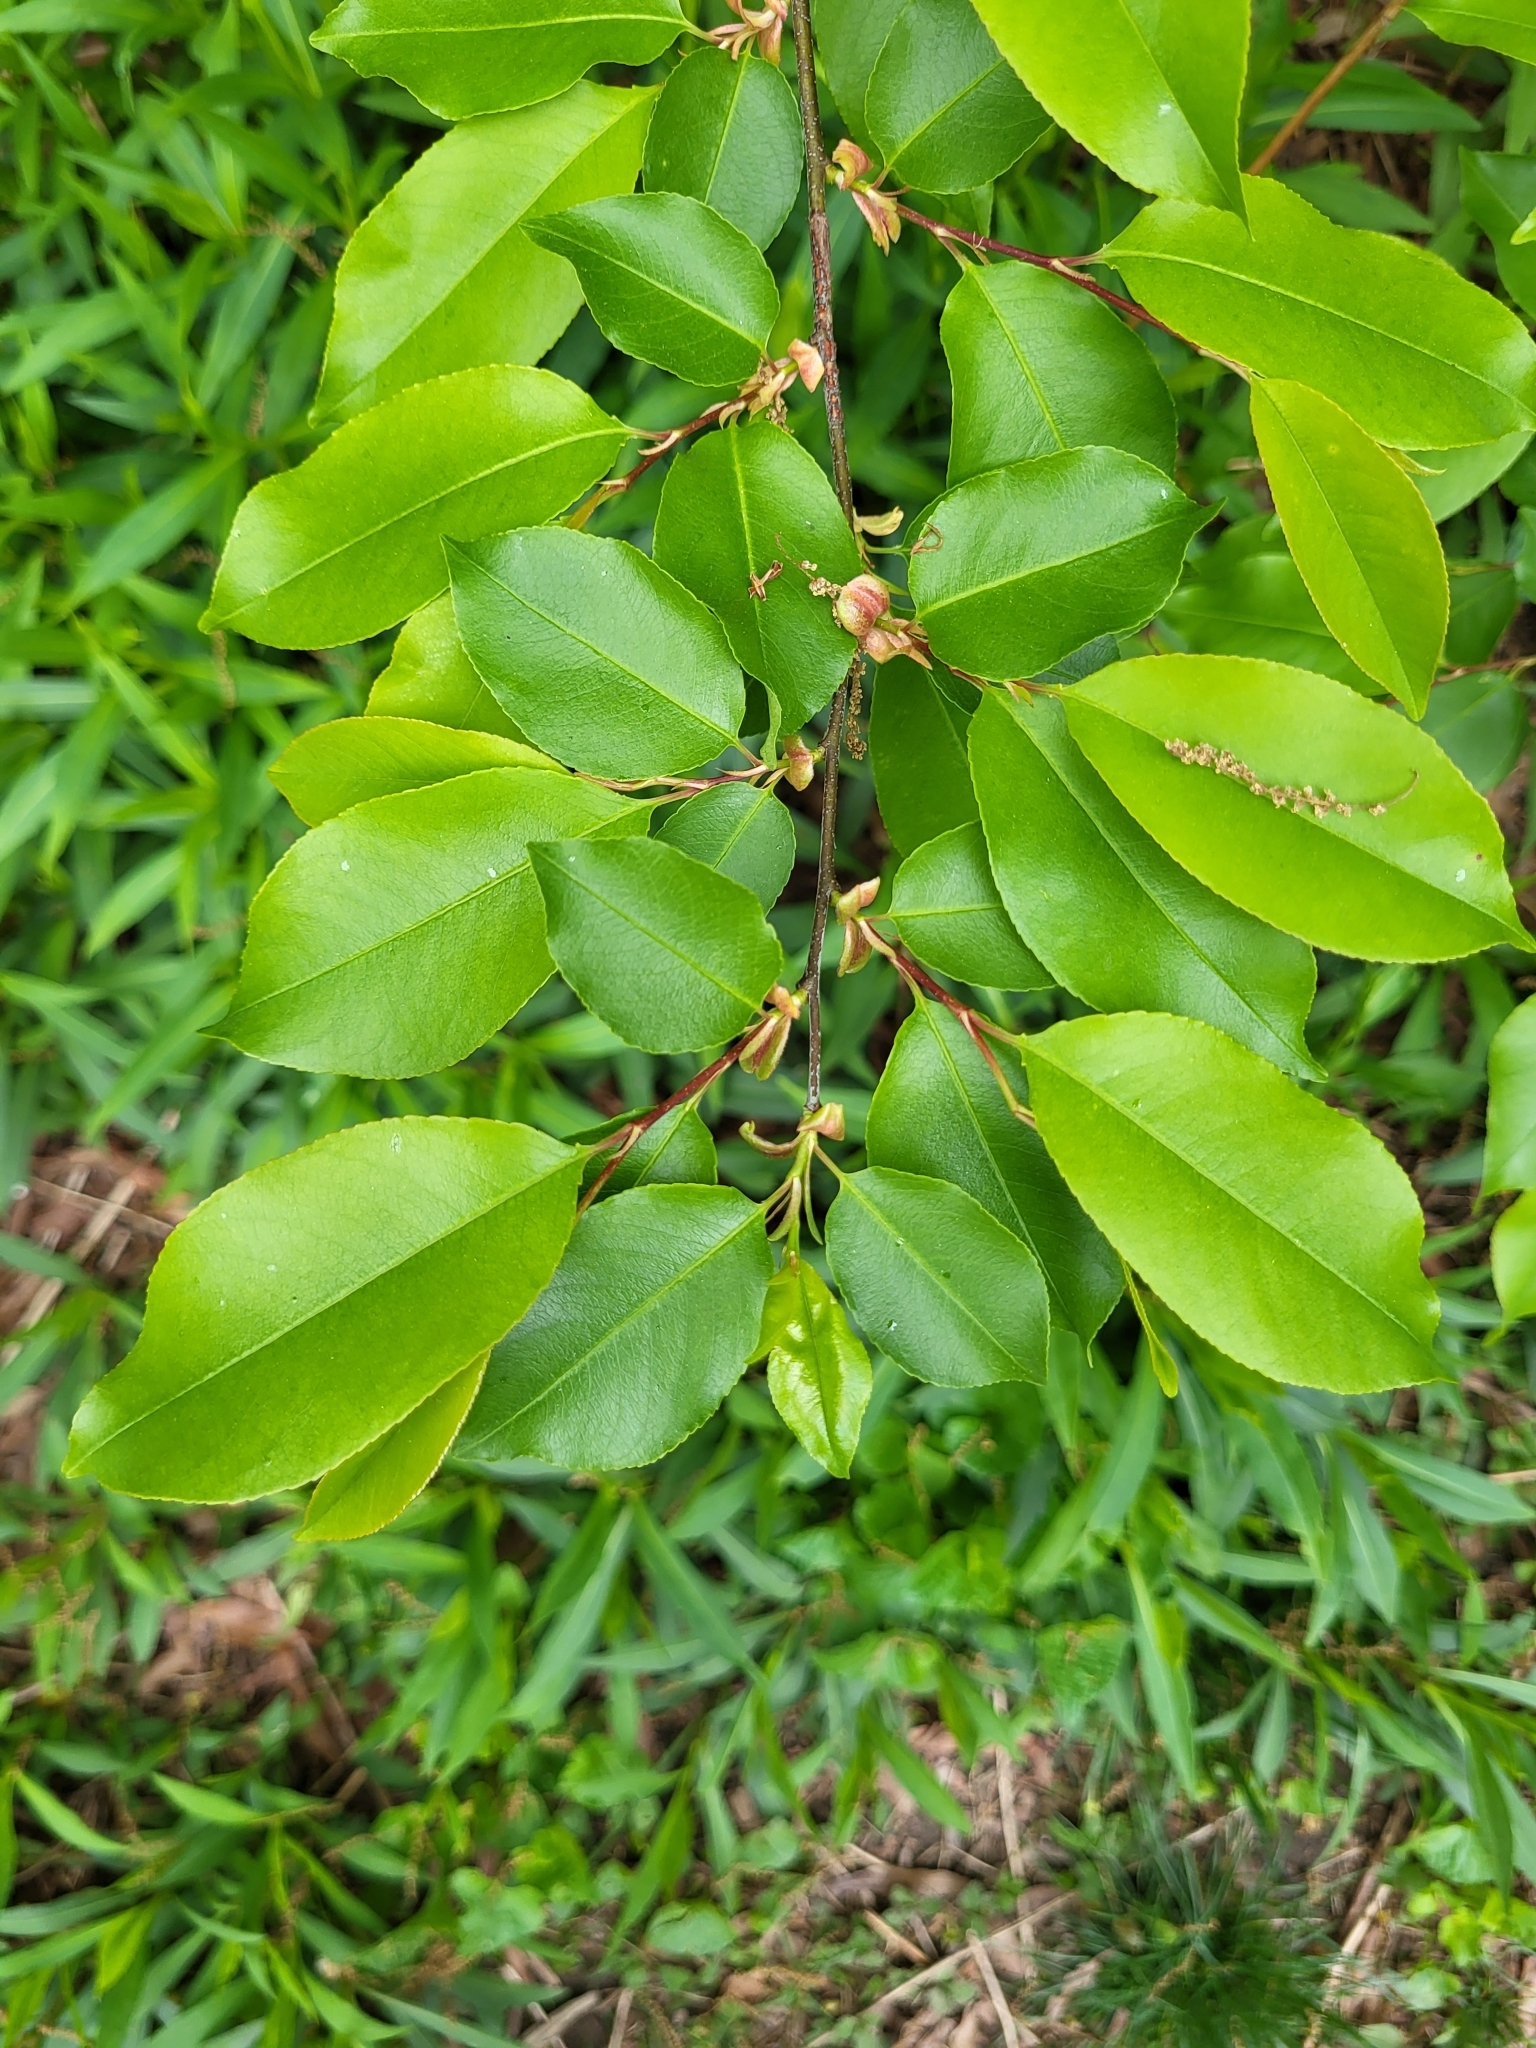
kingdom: Plantae
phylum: Tracheophyta
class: Magnoliopsida
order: Rosales
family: Rosaceae
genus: Prunus
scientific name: Prunus serotina
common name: Black cherry
